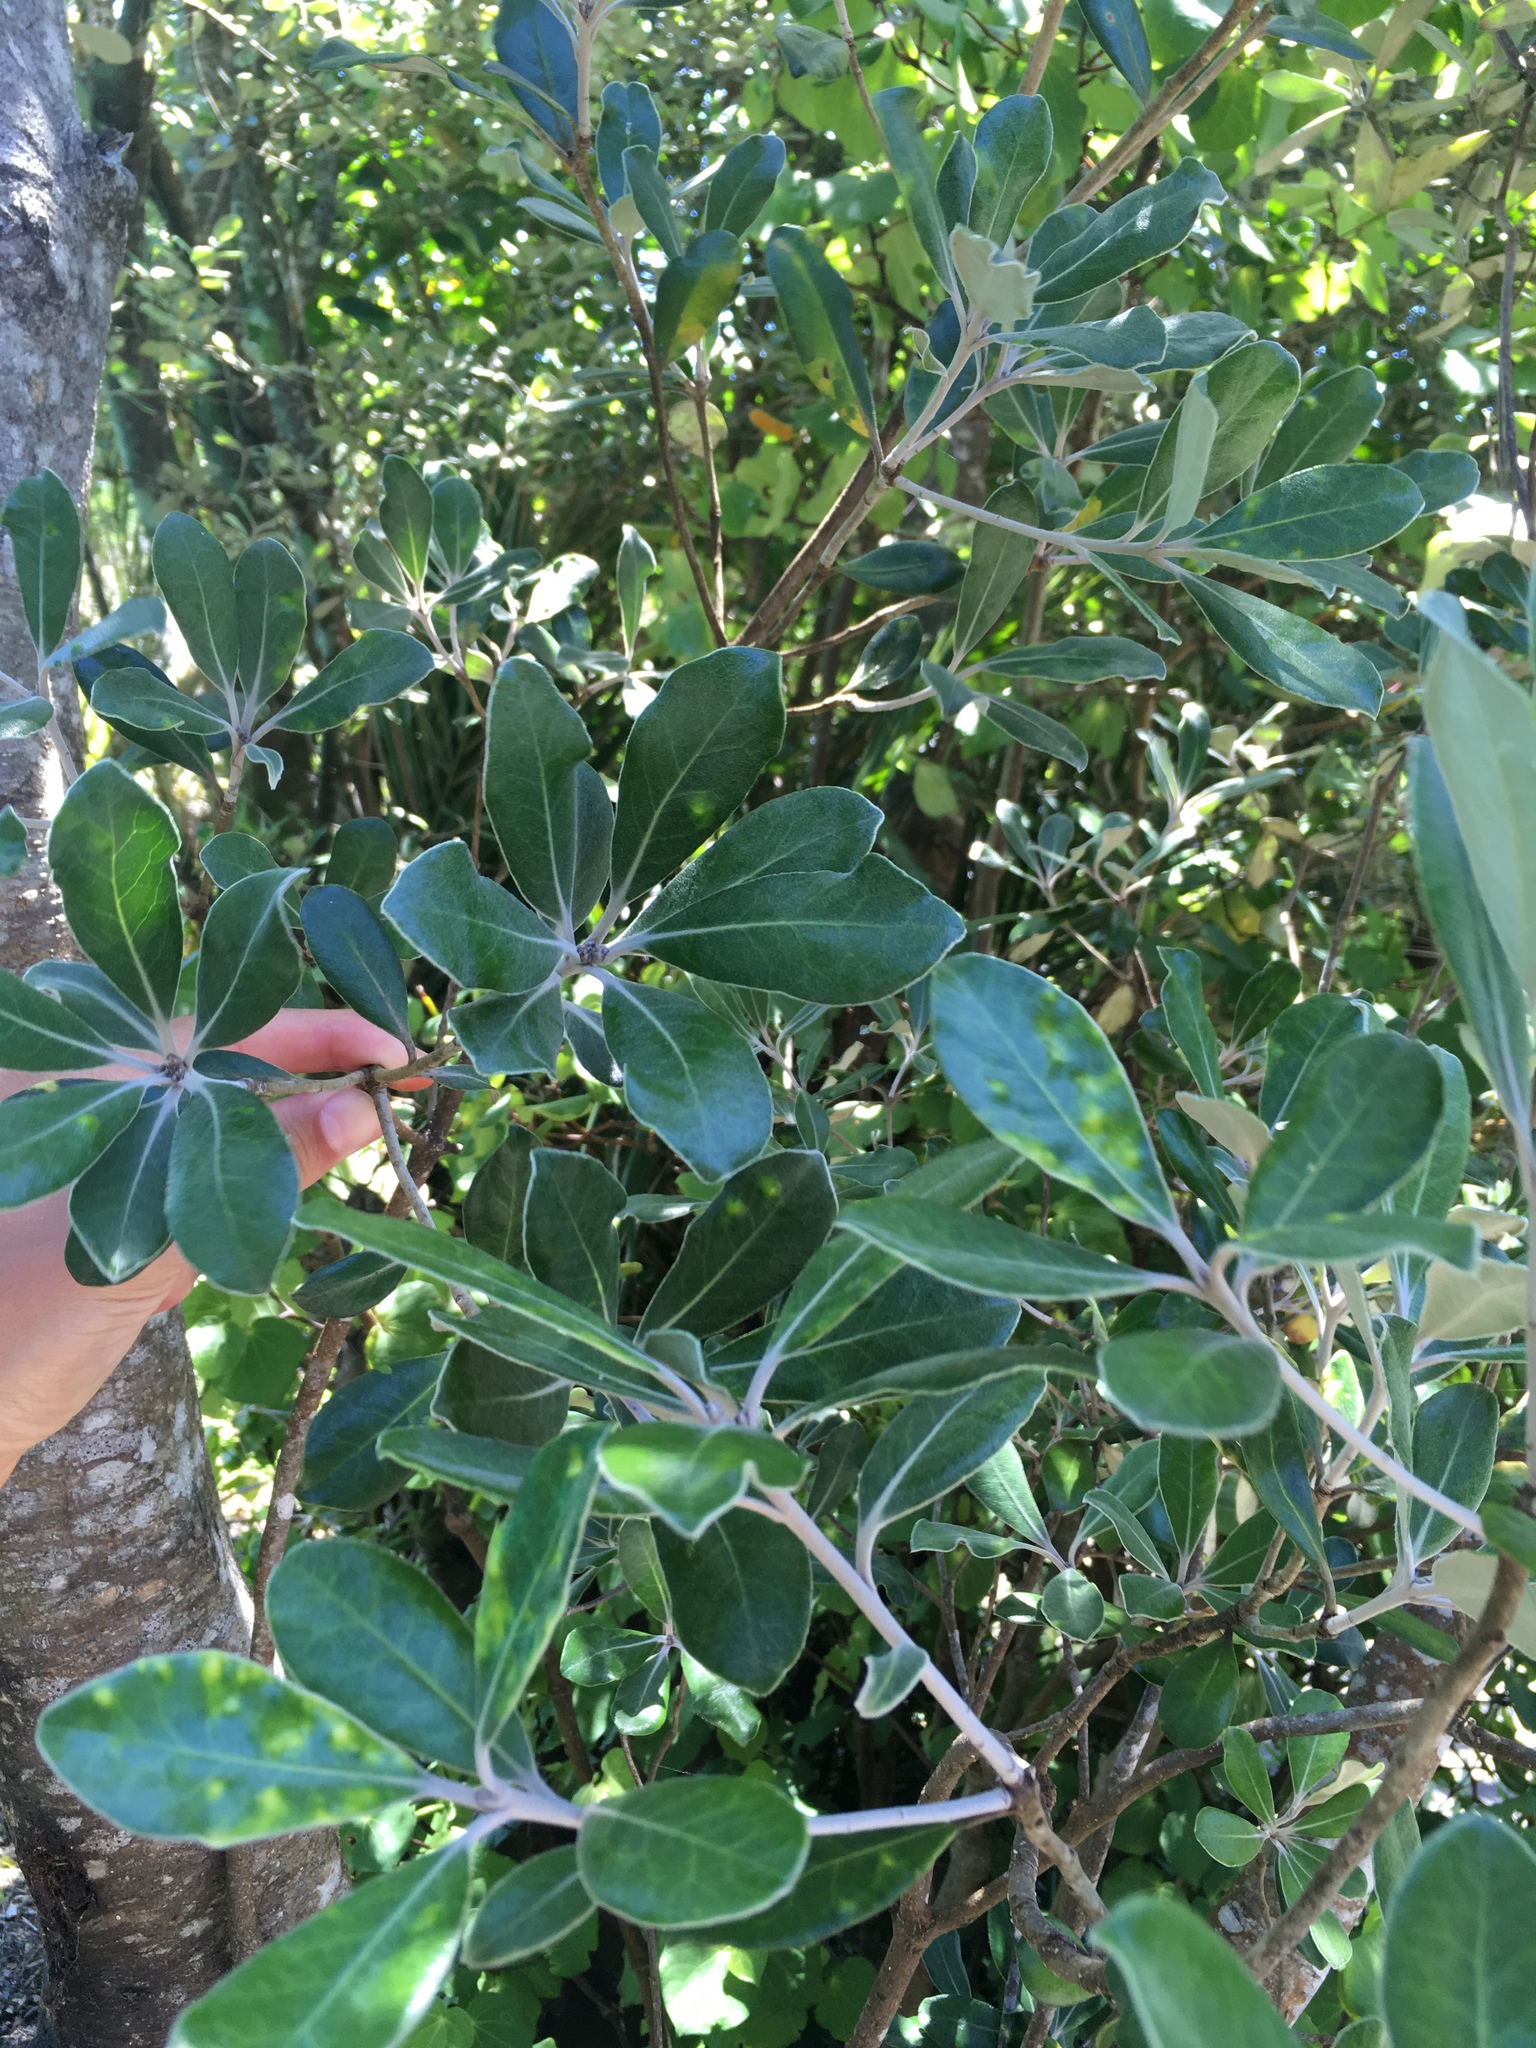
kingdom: Plantae
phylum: Tracheophyta
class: Magnoliopsida
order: Apiales
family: Pittosporaceae
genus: Pittosporum
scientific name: Pittosporum crassifolium
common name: Karo
